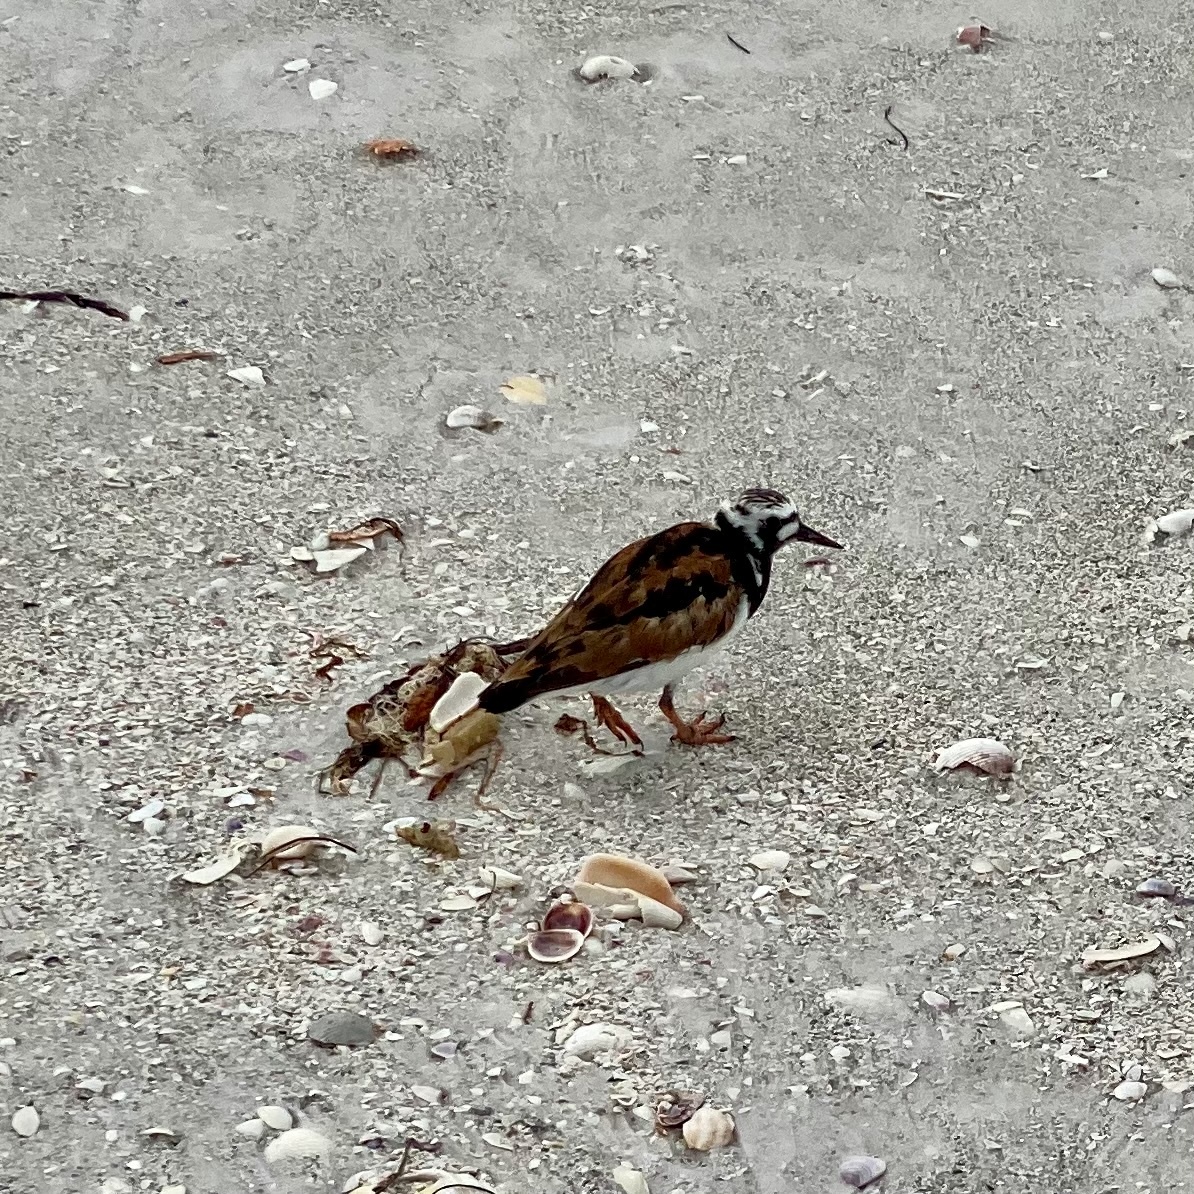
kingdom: Animalia
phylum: Chordata
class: Aves
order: Charadriiformes
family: Scolopacidae
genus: Arenaria
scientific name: Arenaria interpres
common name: Ruddy turnstone
